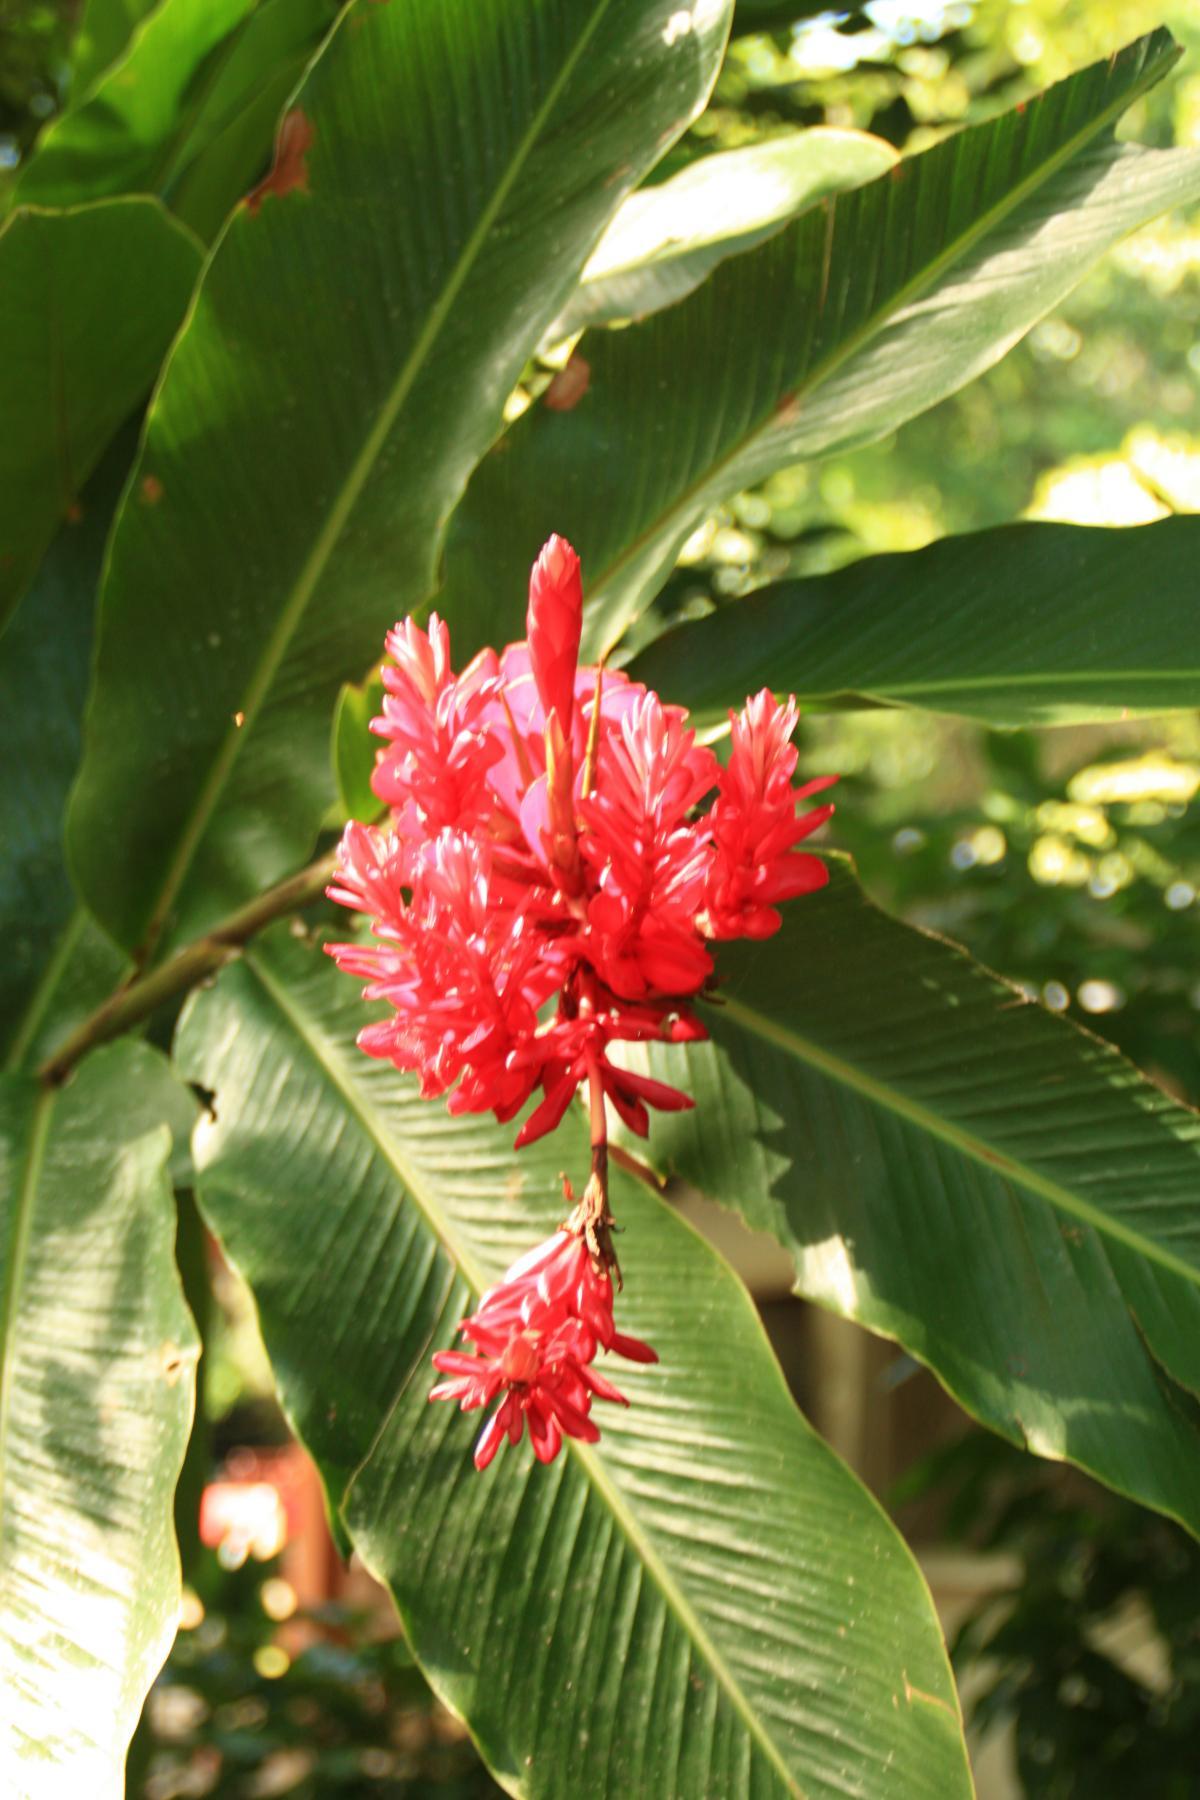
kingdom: Plantae
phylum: Tracheophyta
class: Liliopsida
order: Zingiberales
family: Zingiberaceae
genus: Alpinia
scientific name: Alpinia purpurata
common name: Red ginger
